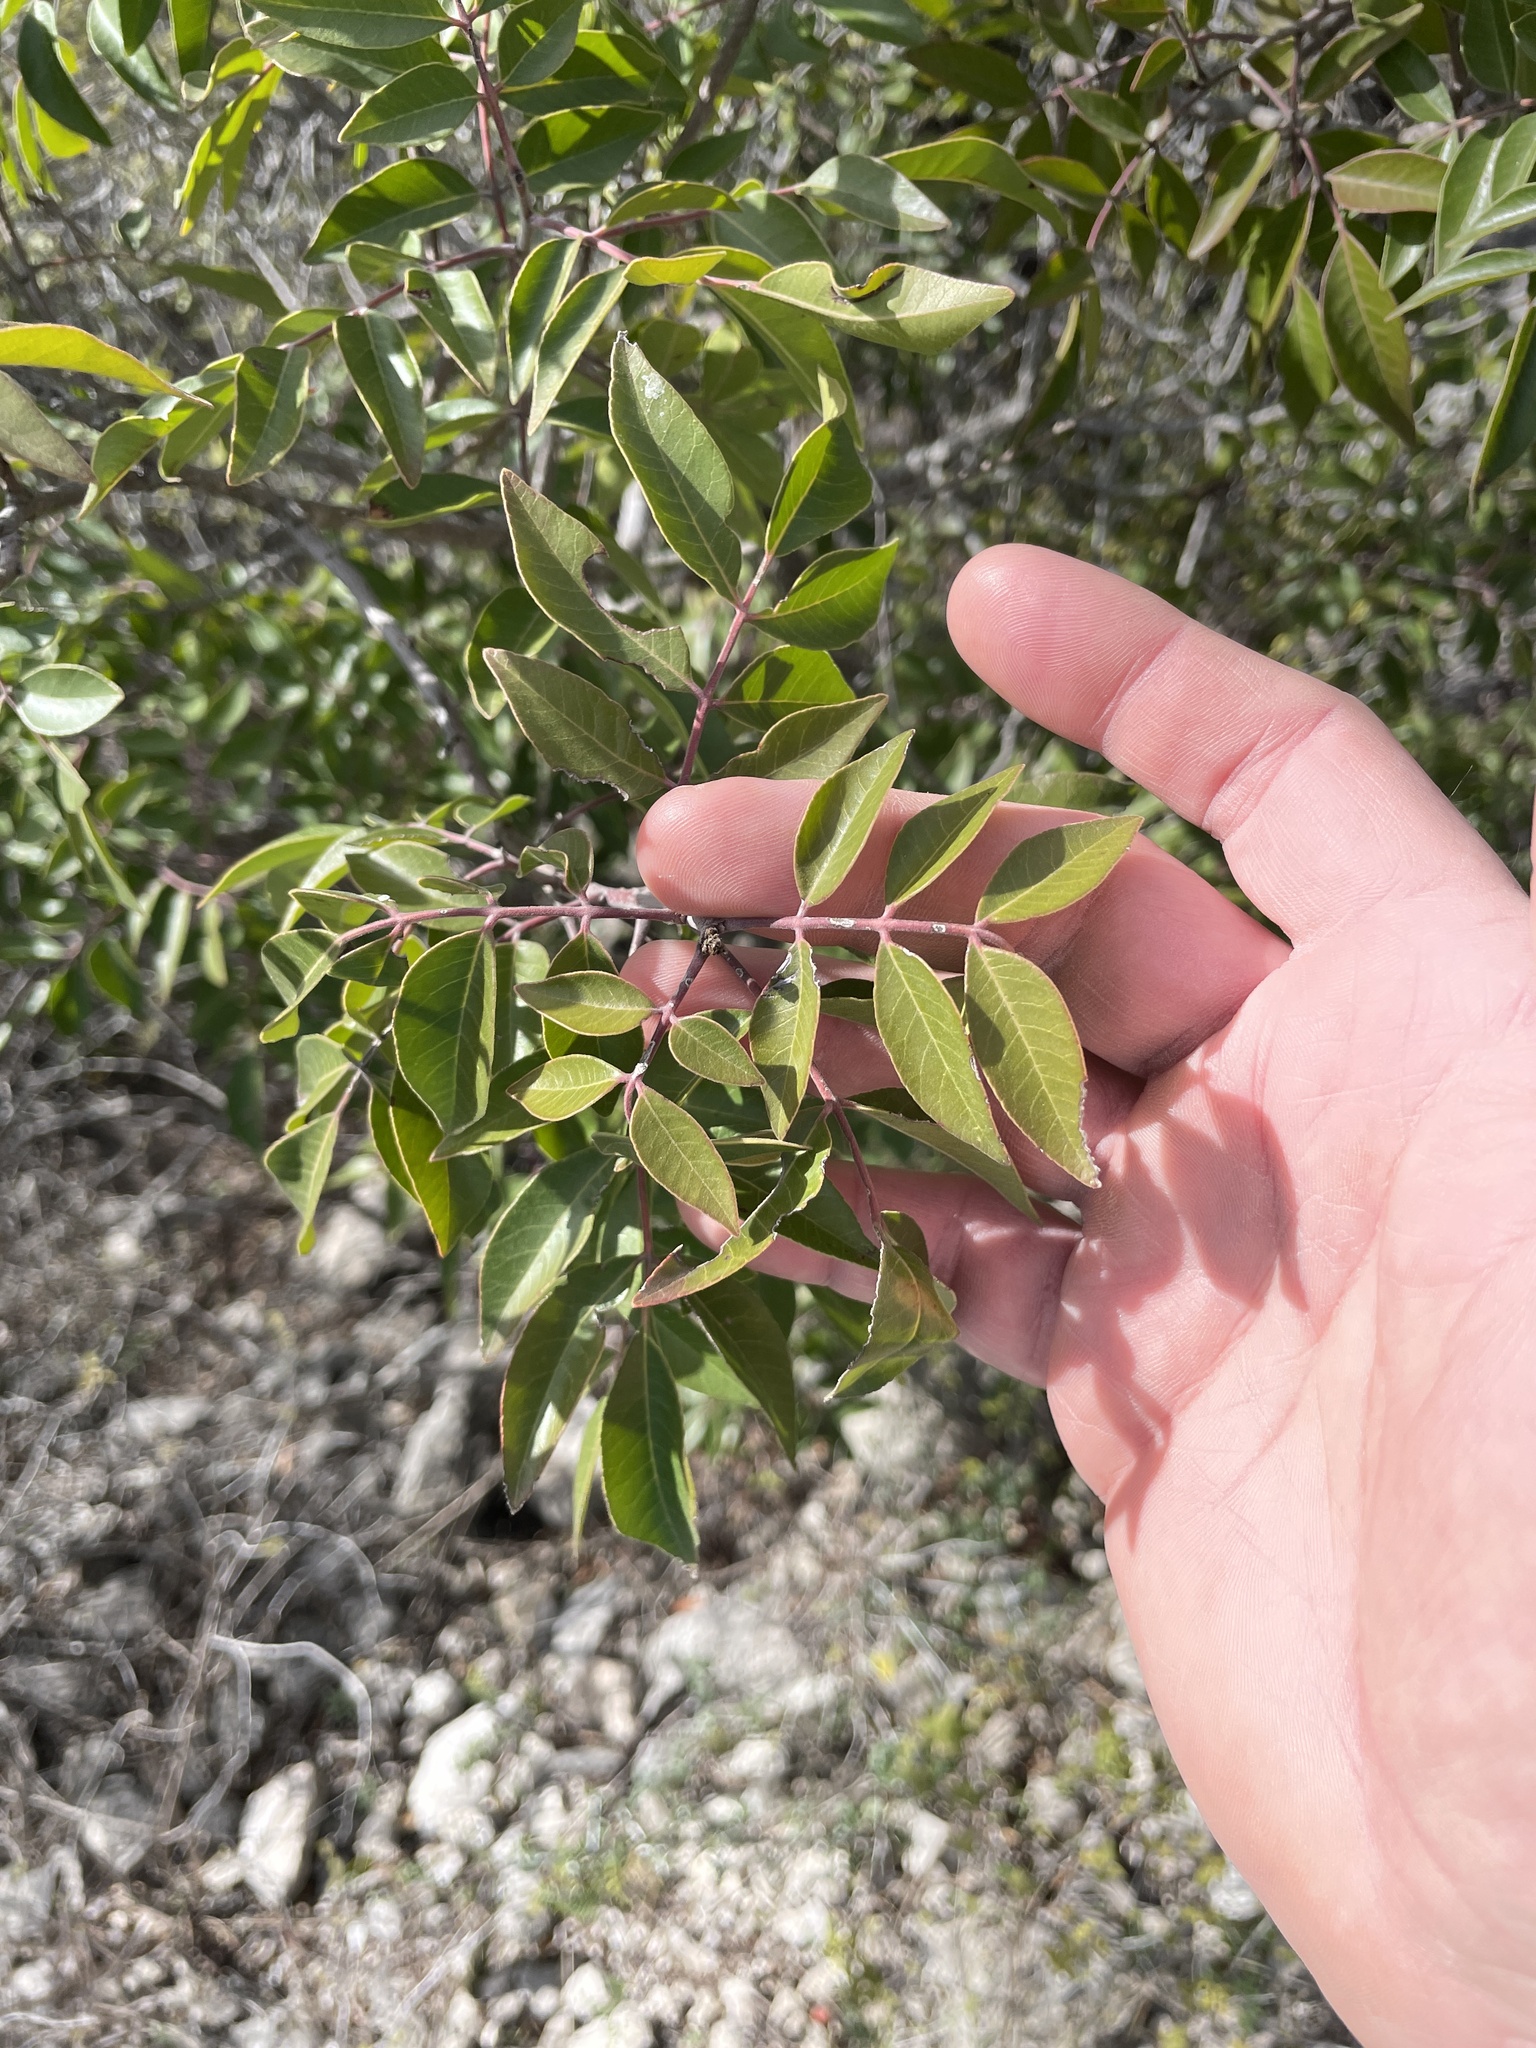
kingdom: Plantae
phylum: Tracheophyta
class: Magnoliopsida
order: Sapindales
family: Anacardiaceae
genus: Rhus
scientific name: Rhus virens
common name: Evergreen sumac
